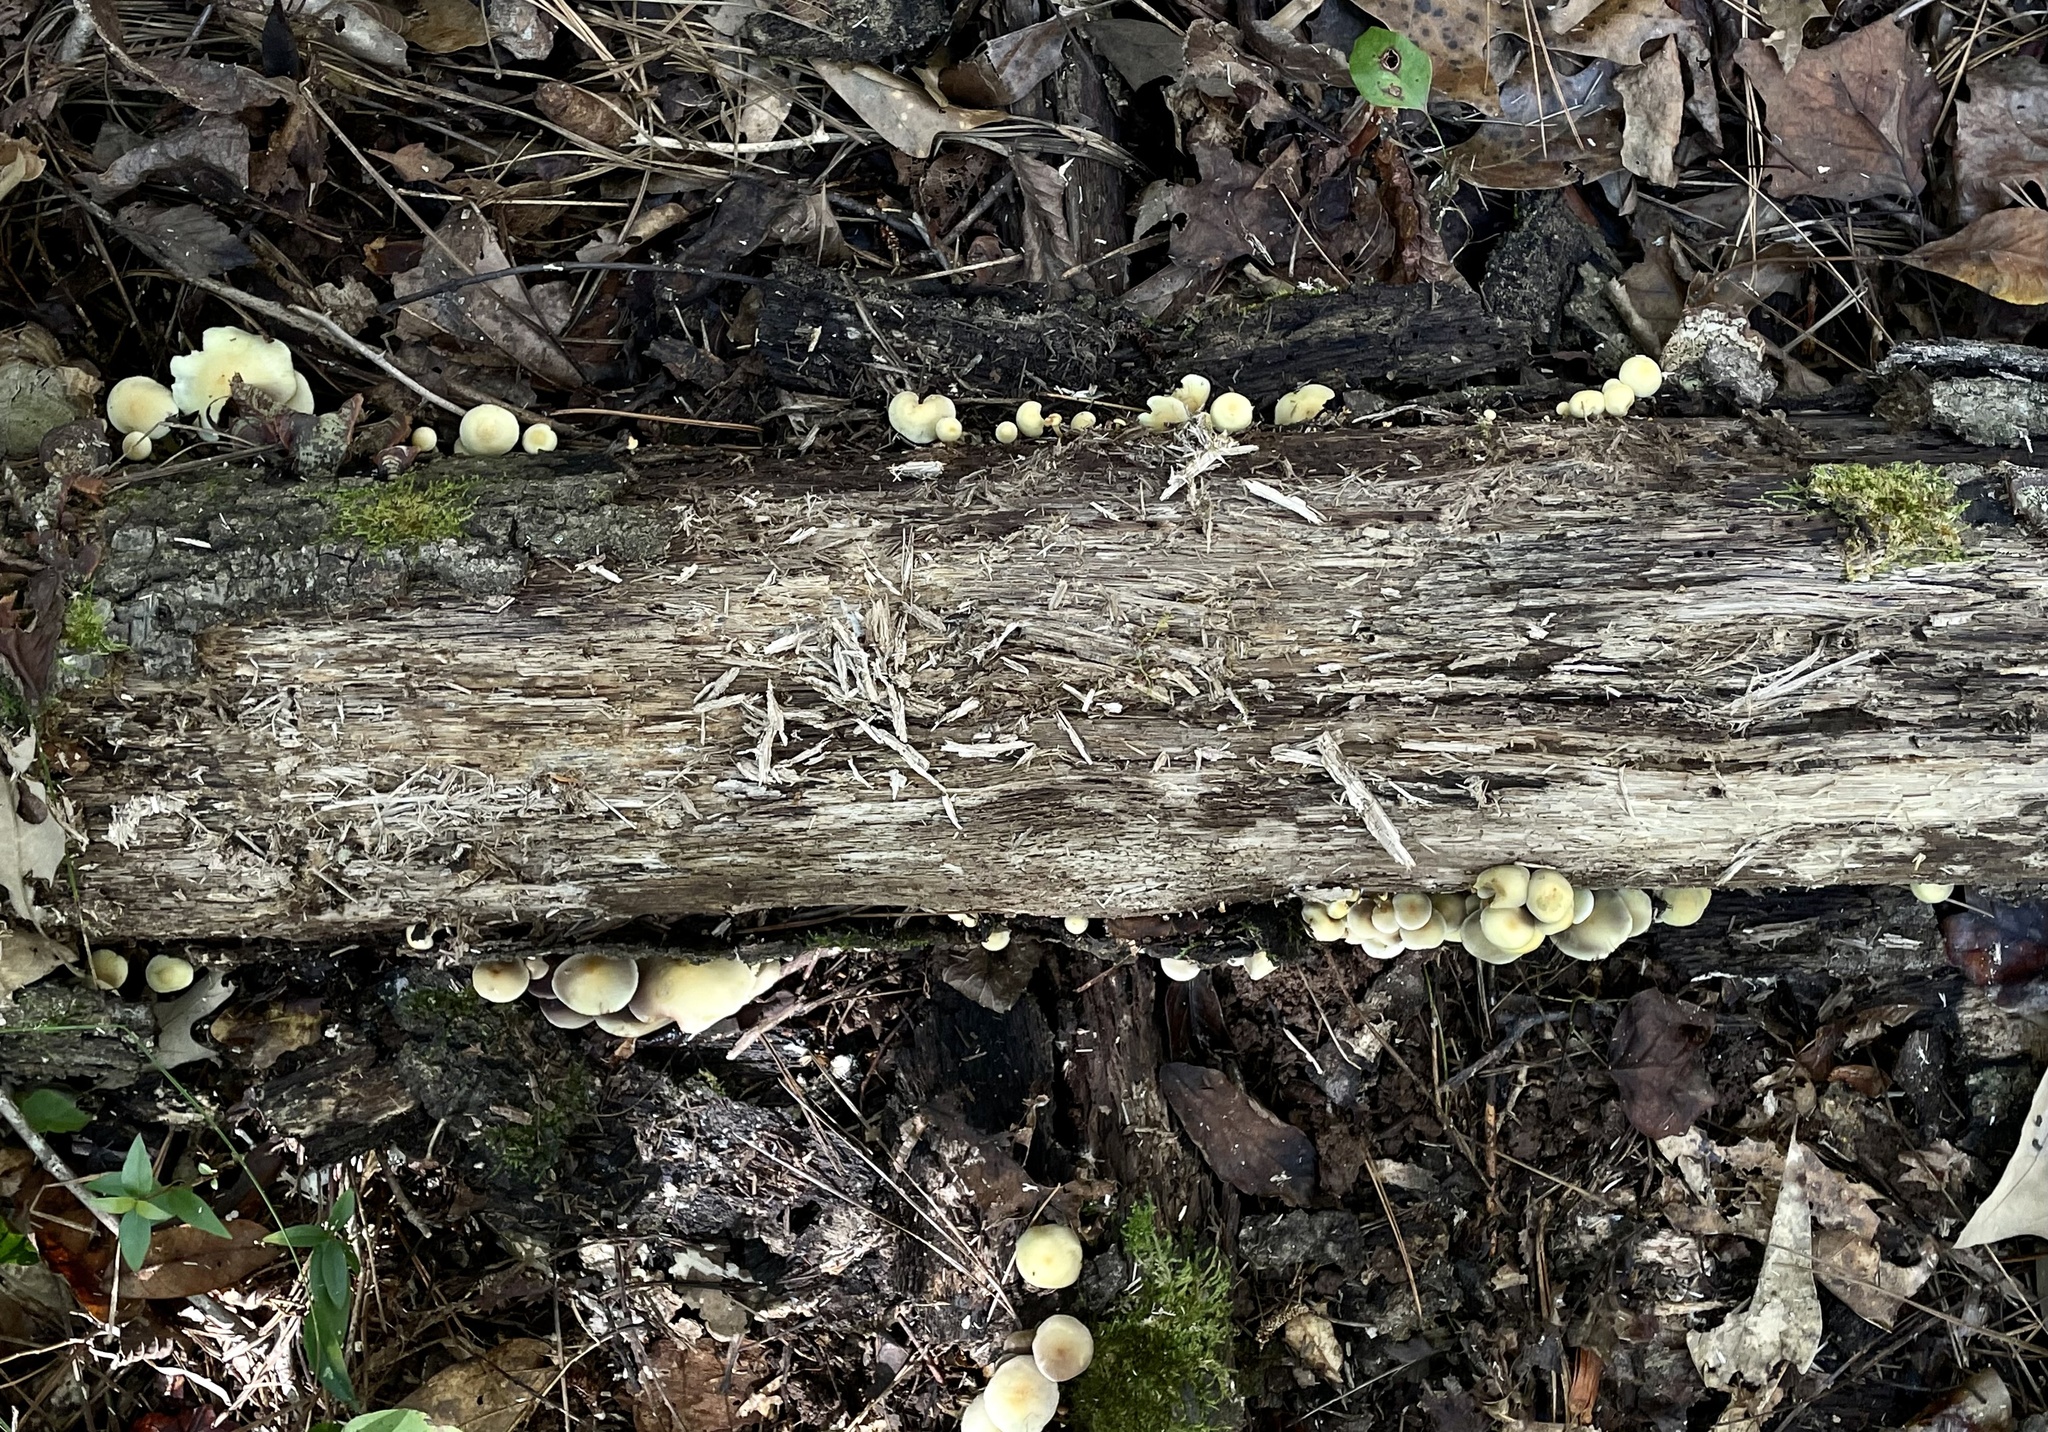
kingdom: Fungi
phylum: Basidiomycota
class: Agaricomycetes
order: Agaricales
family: Strophariaceae
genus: Hypholoma
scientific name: Hypholoma fasciculare
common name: Sulphur tuft
